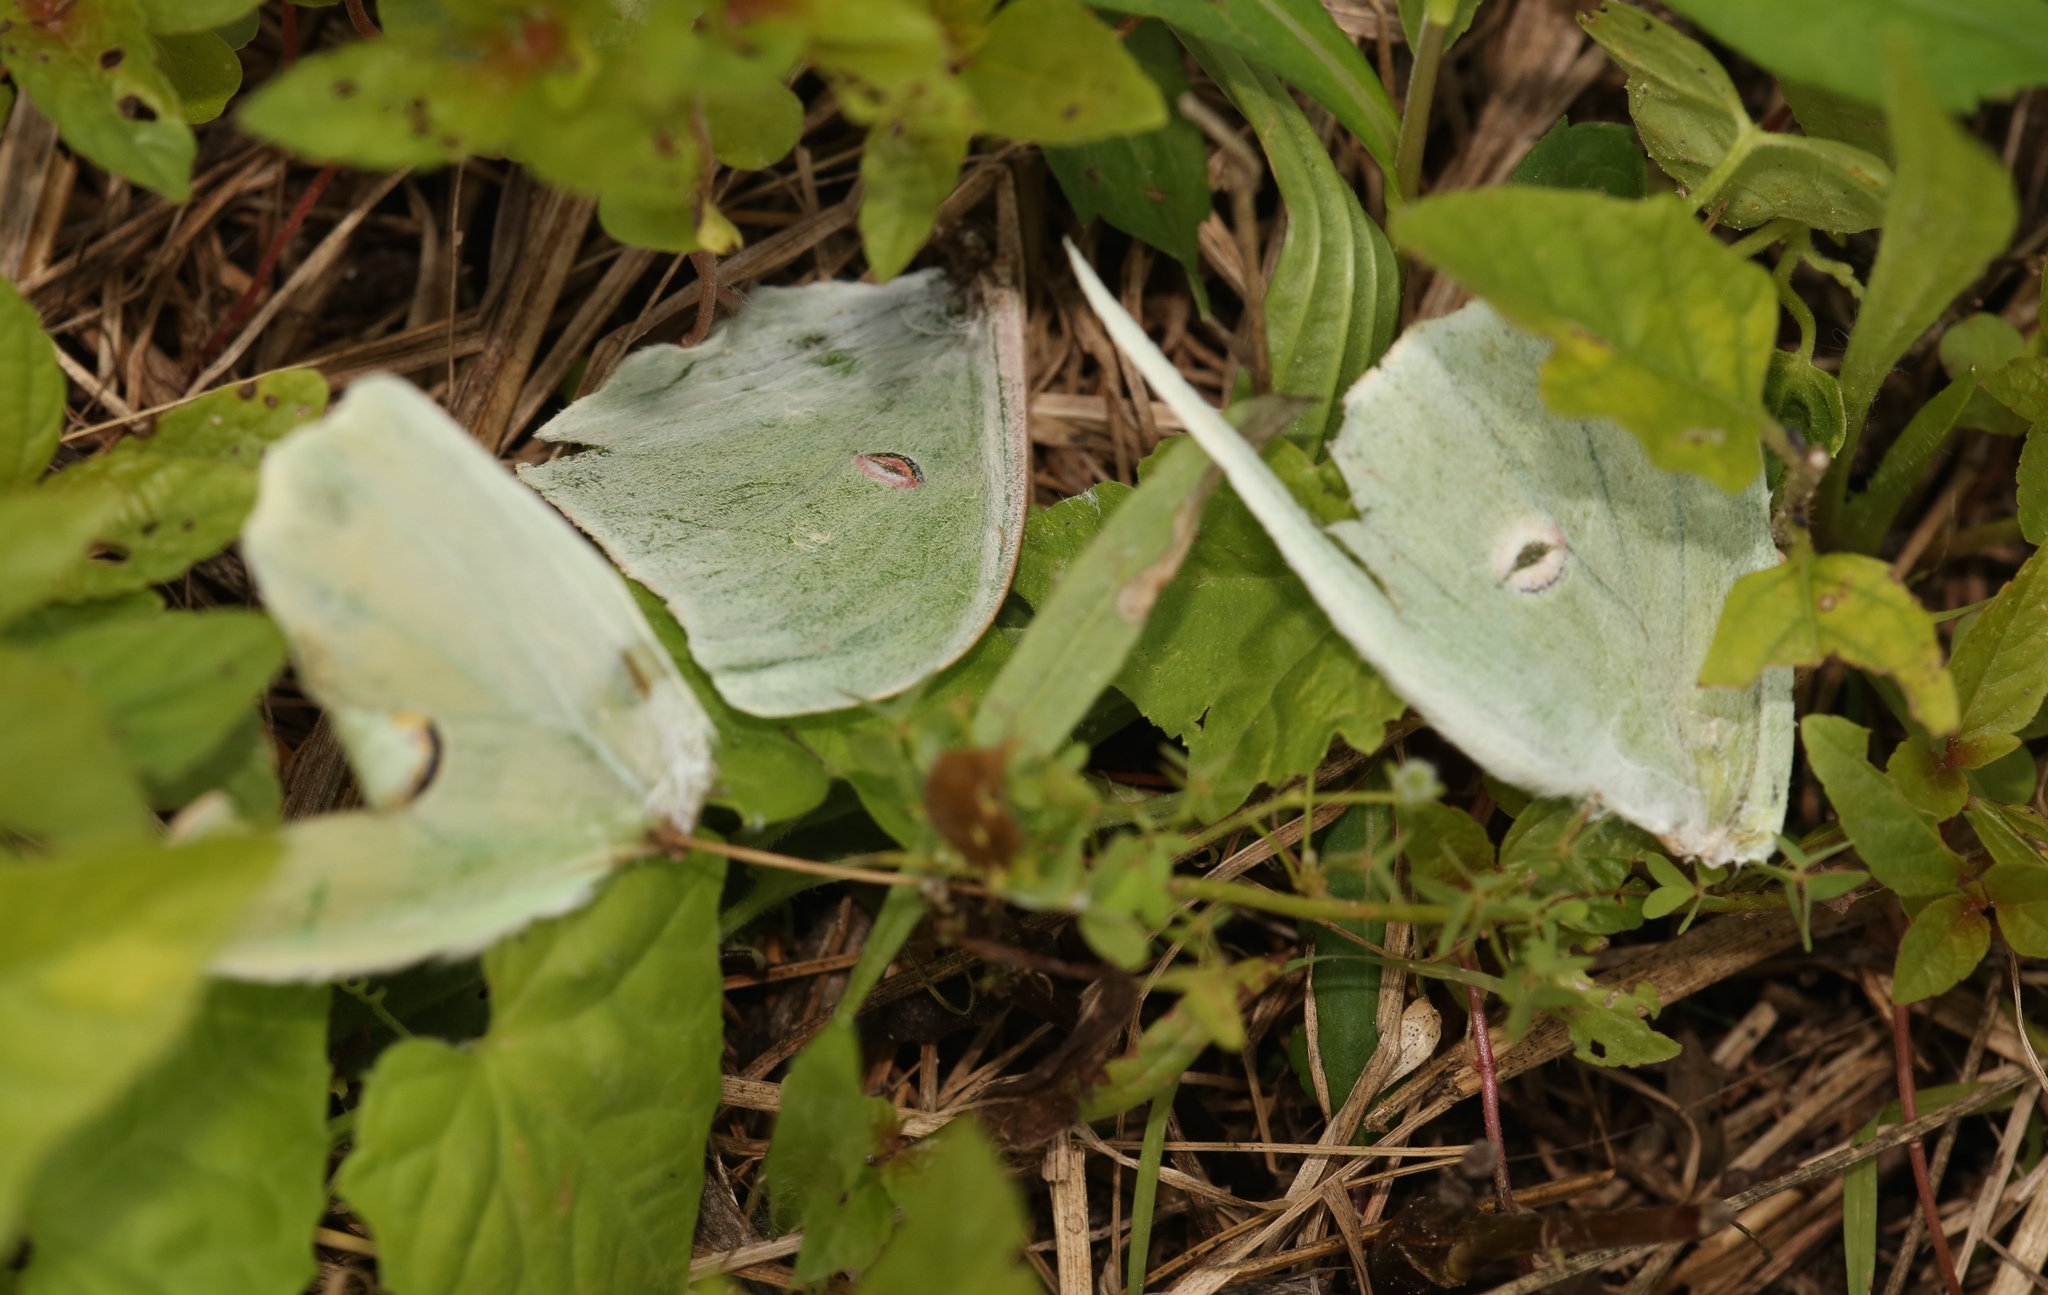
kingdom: Animalia
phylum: Arthropoda
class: Insecta
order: Lepidoptera
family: Saturniidae
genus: Actias
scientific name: Actias luna
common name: Luna moth
